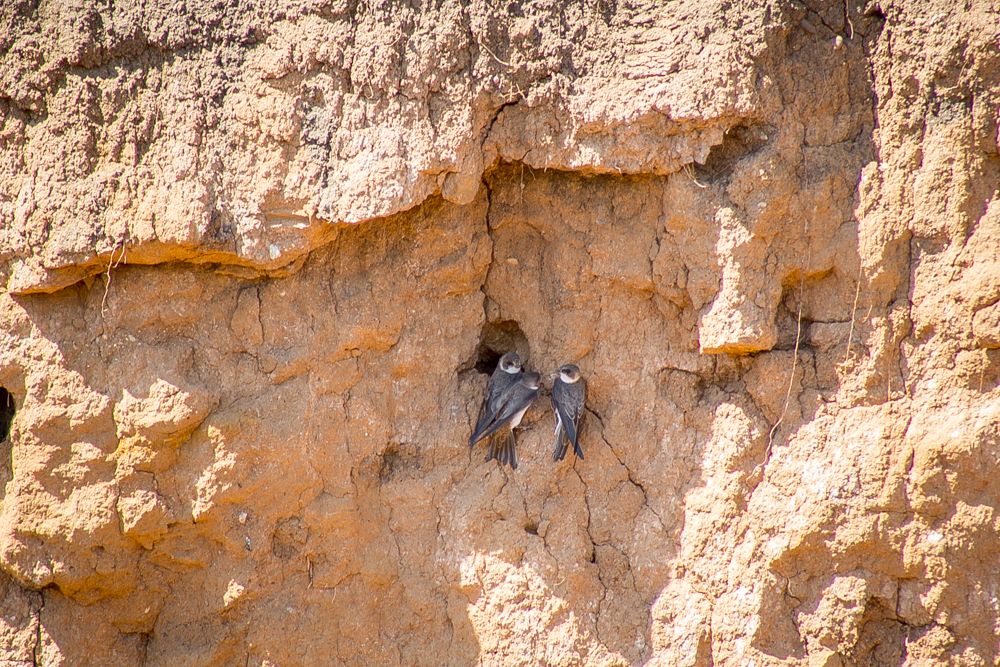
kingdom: Animalia
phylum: Chordata
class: Aves
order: Passeriformes
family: Hirundinidae
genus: Riparia
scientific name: Riparia riparia
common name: Sand martin
